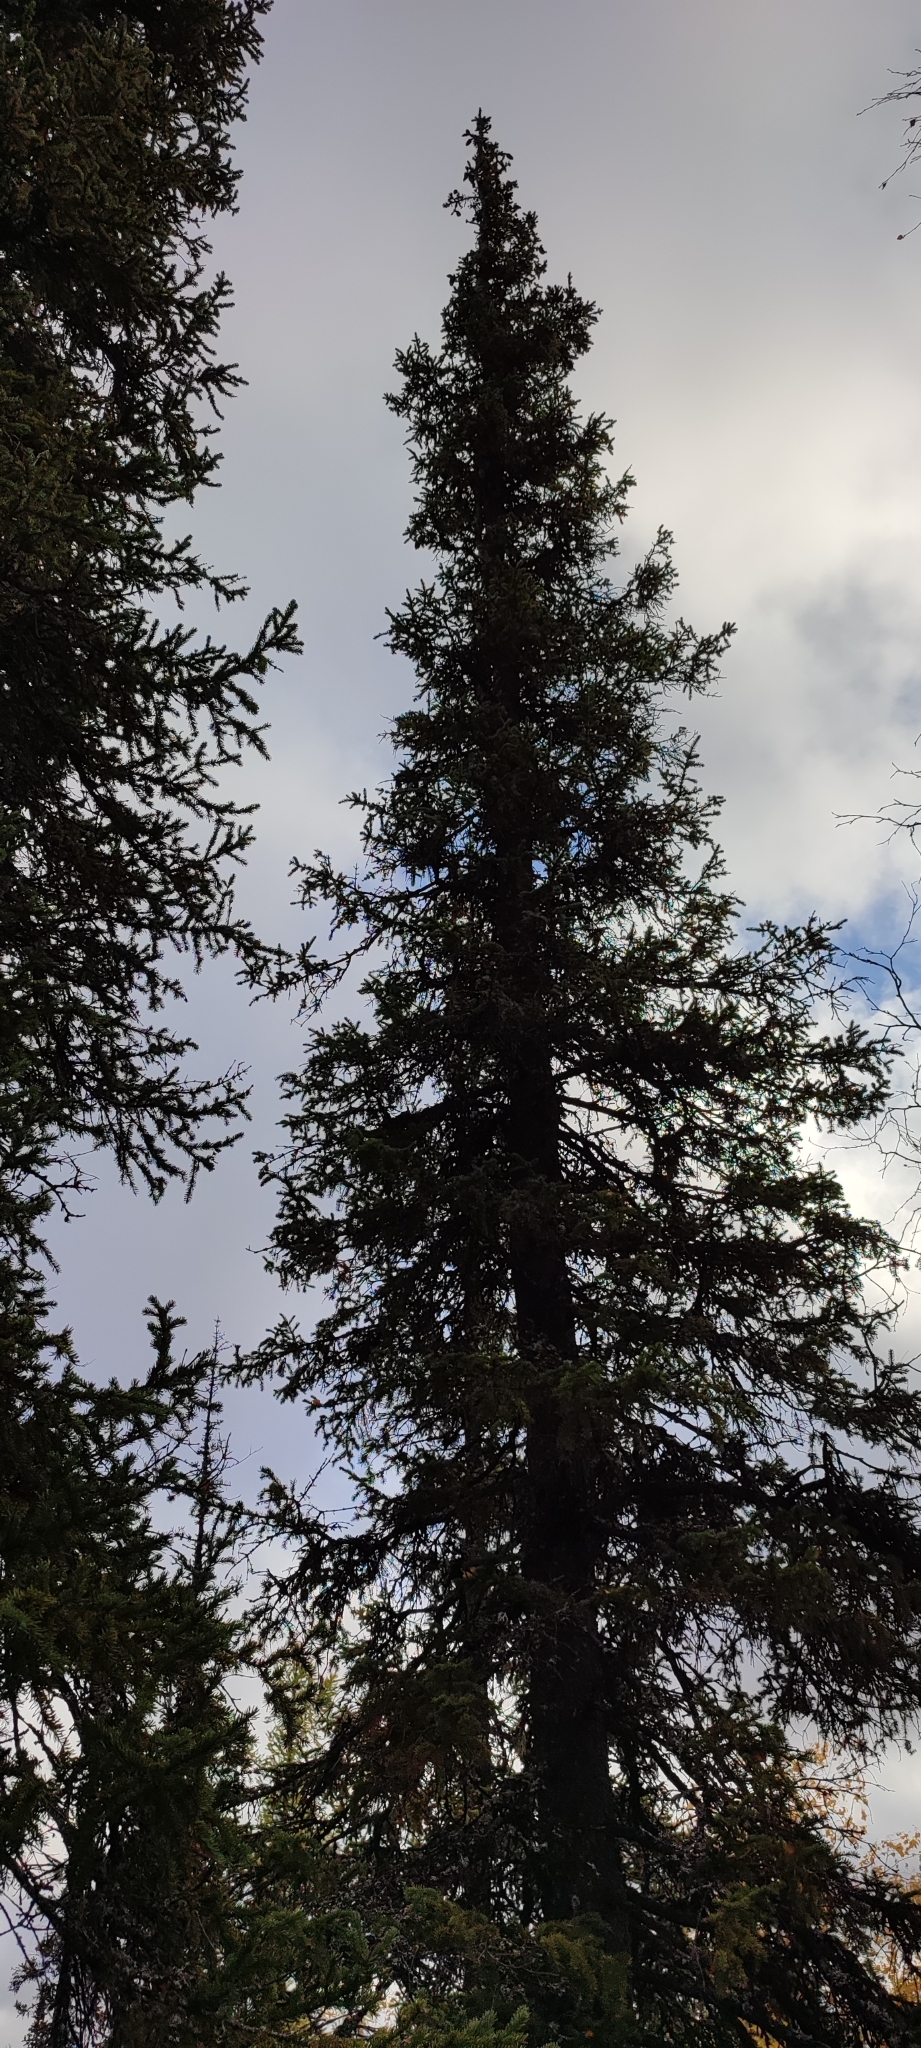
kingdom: Plantae
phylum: Tracheophyta
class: Pinopsida
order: Pinales
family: Pinaceae
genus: Picea
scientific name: Picea obovata
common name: Siberian spruce
